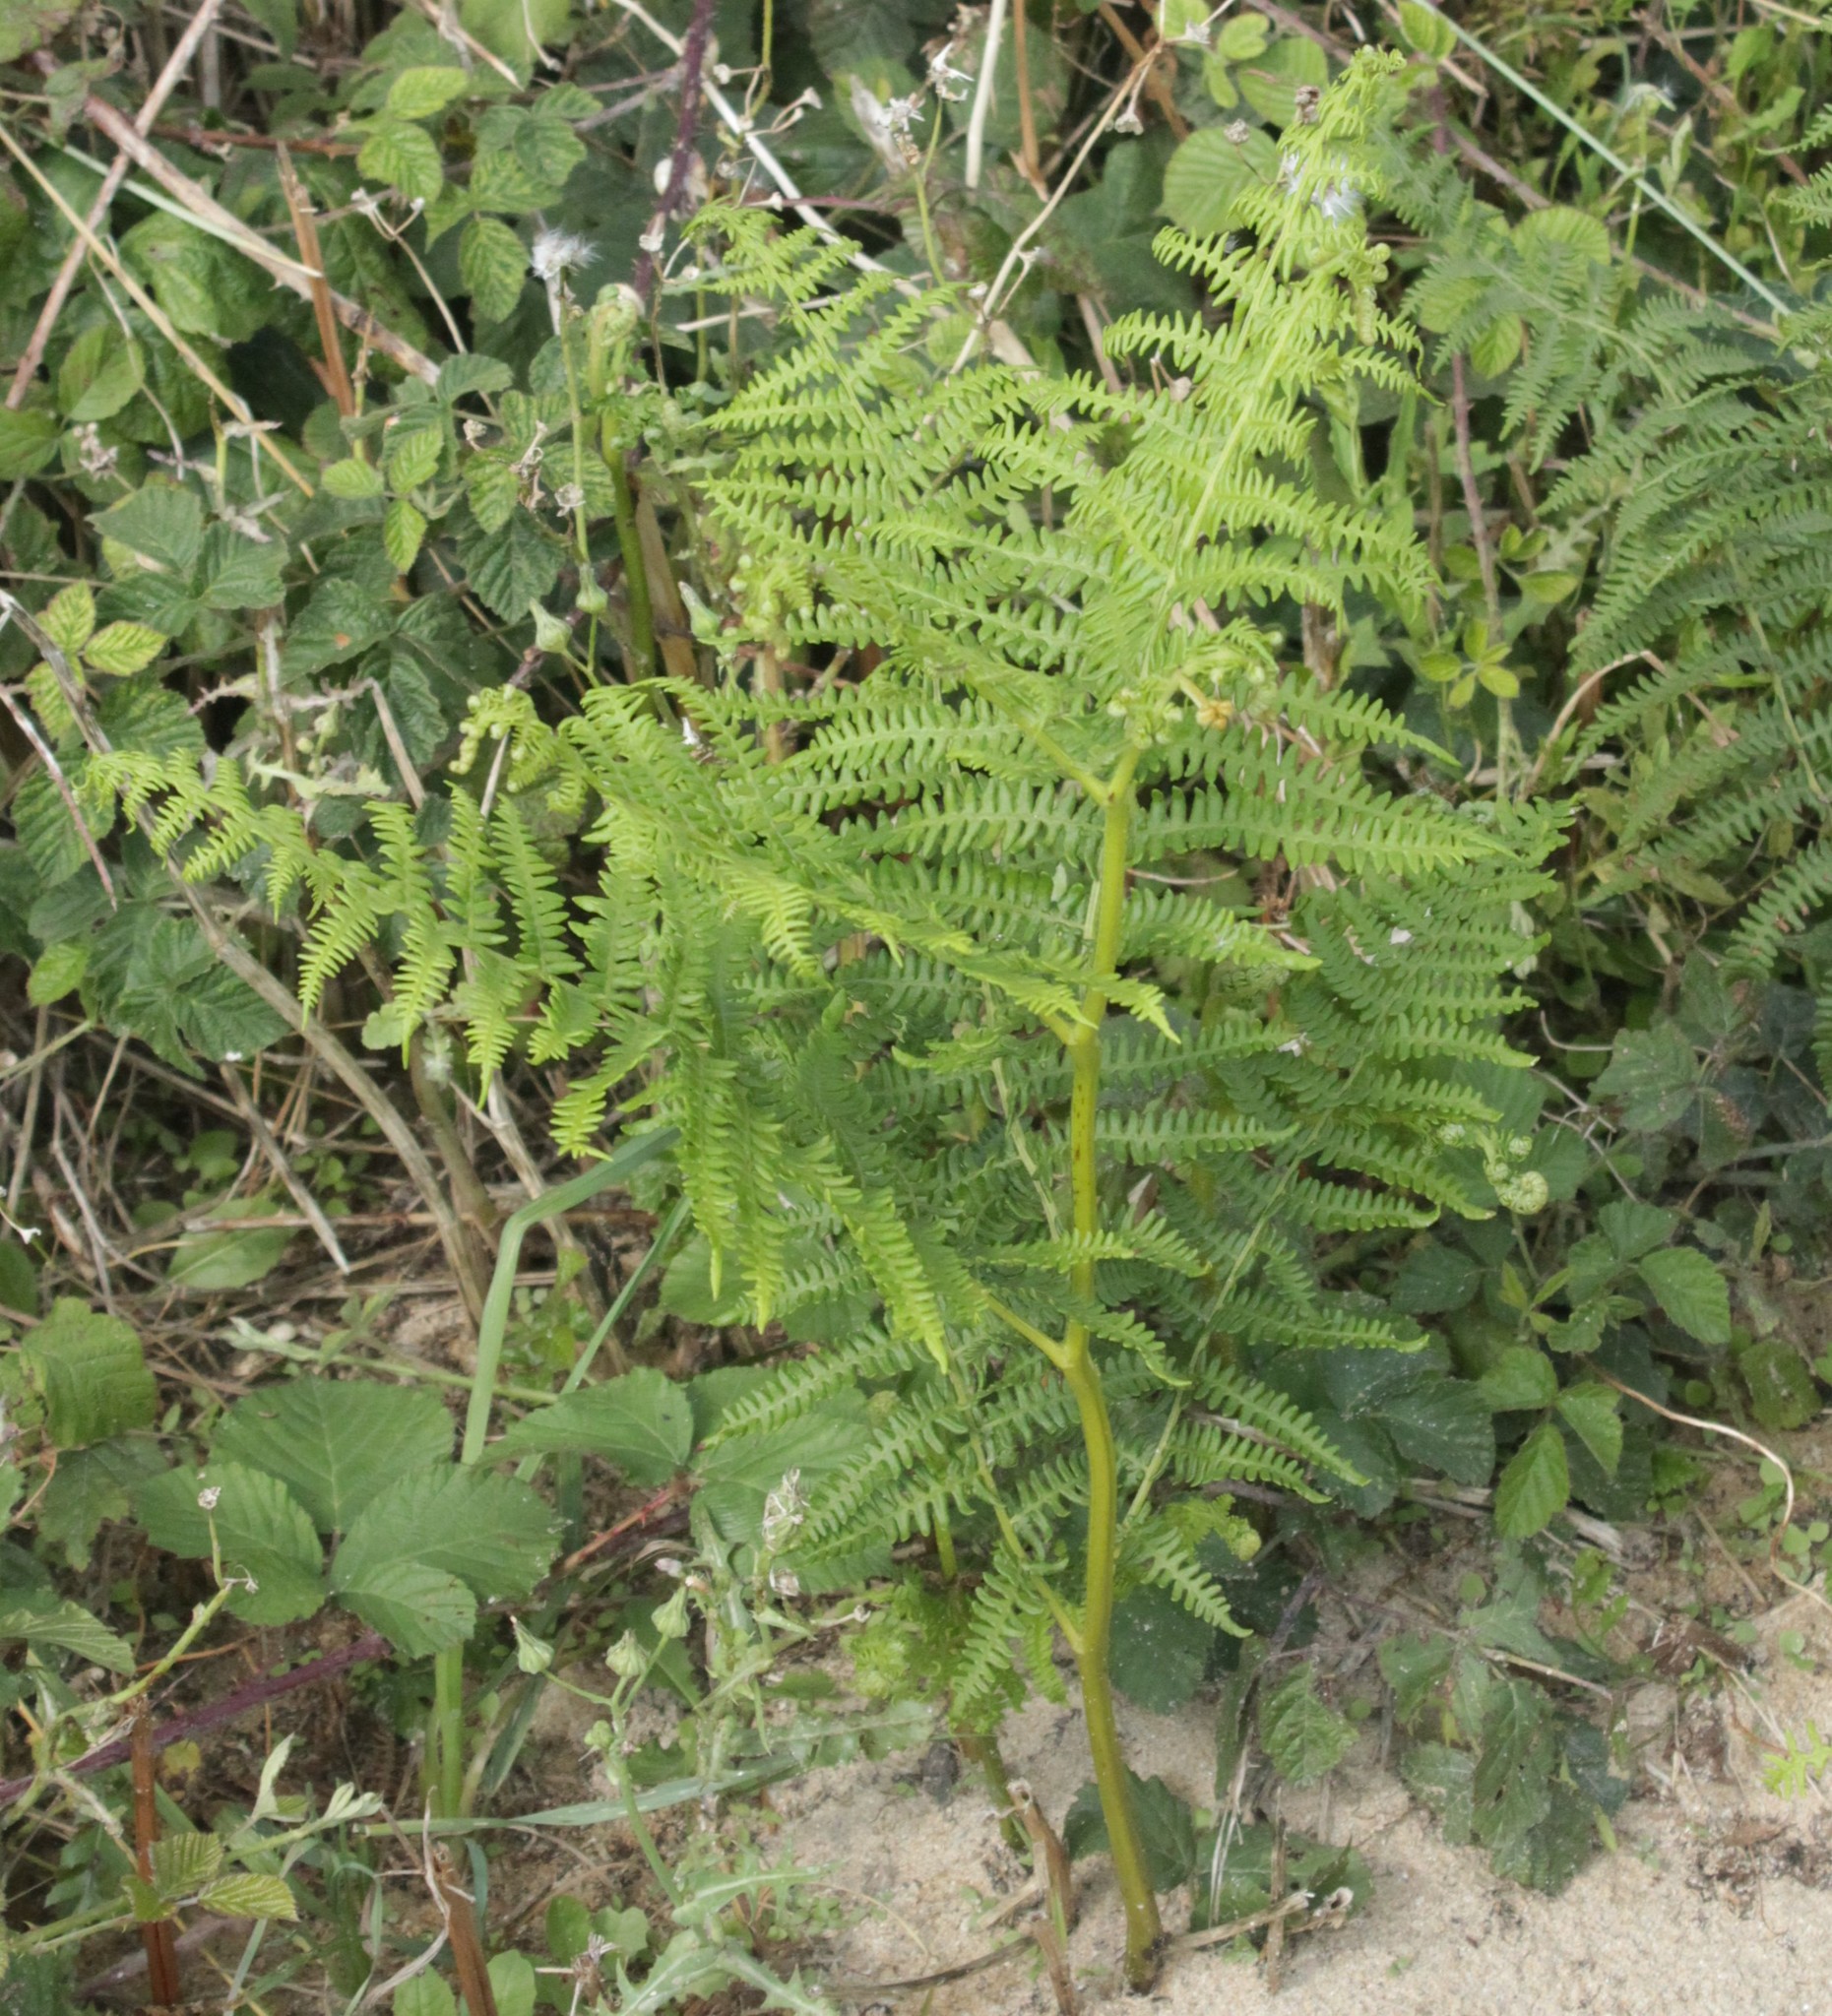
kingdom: Plantae
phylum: Tracheophyta
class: Polypodiopsida
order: Polypodiales
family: Dennstaedtiaceae
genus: Pteridium
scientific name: Pteridium aquilinum
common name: Bracken
